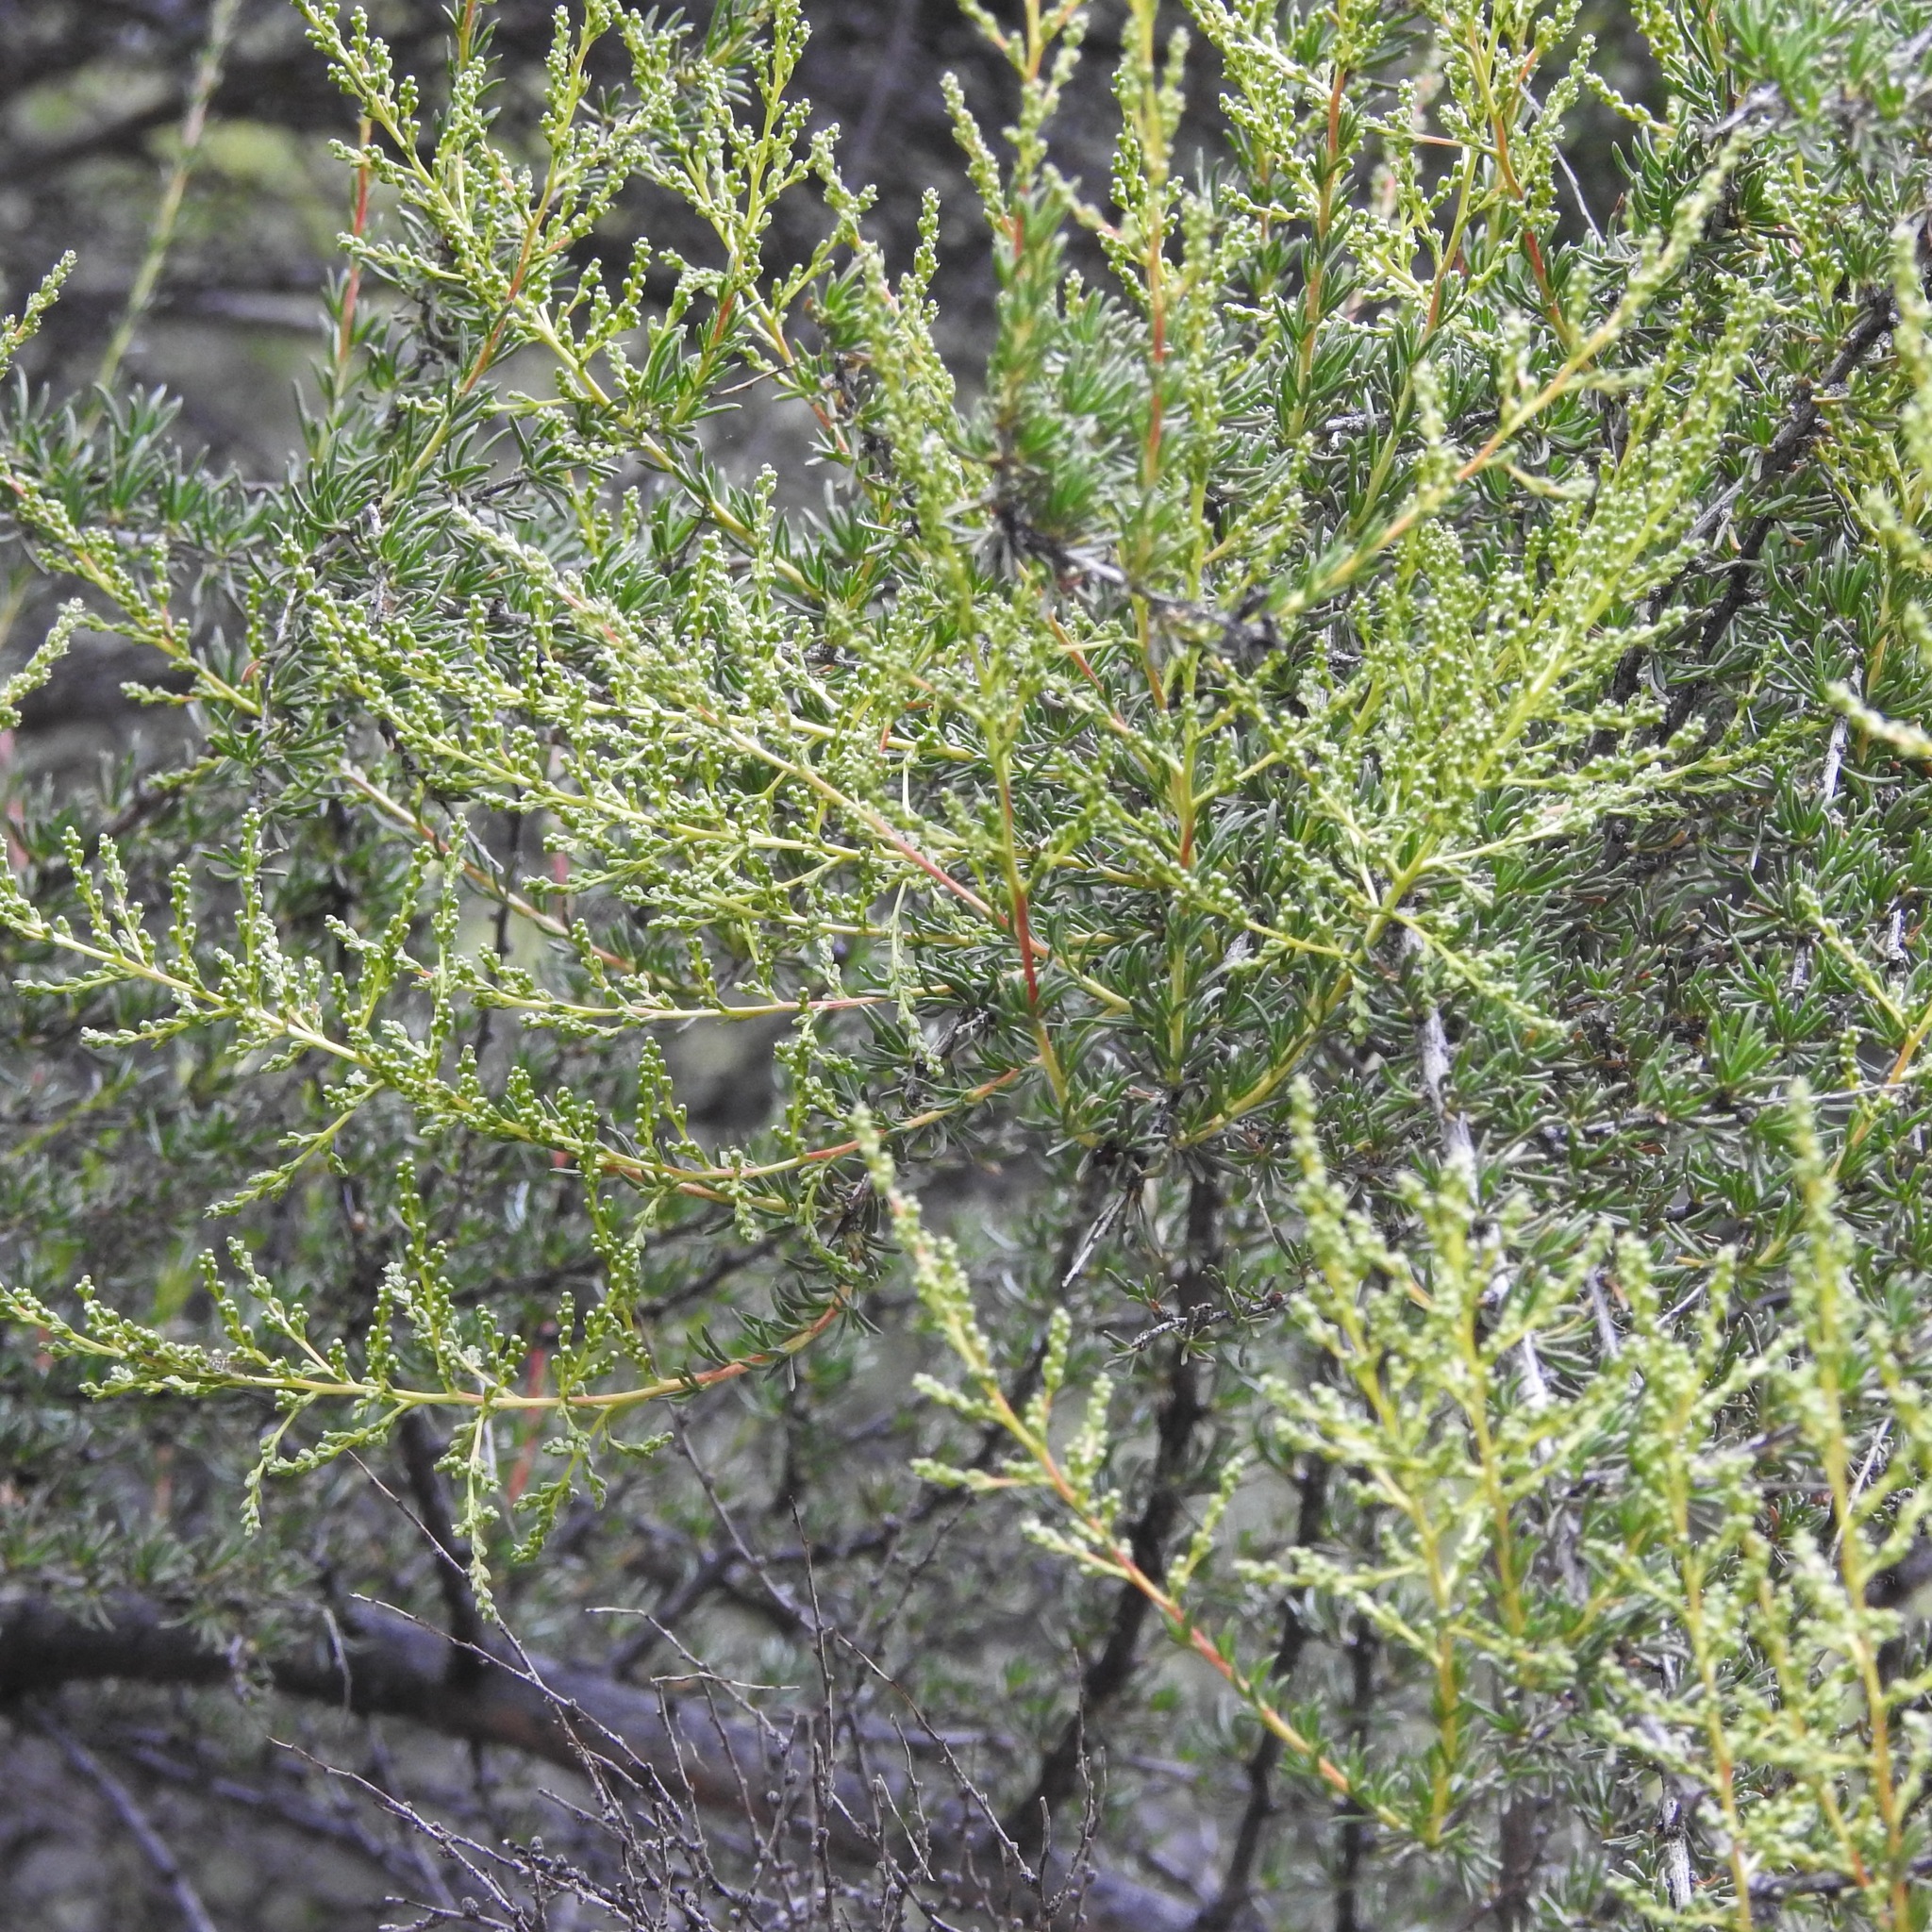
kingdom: Plantae
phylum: Tracheophyta
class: Magnoliopsida
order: Rosales
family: Rosaceae
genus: Adenostoma
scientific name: Adenostoma fasciculatum
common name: Chamise
